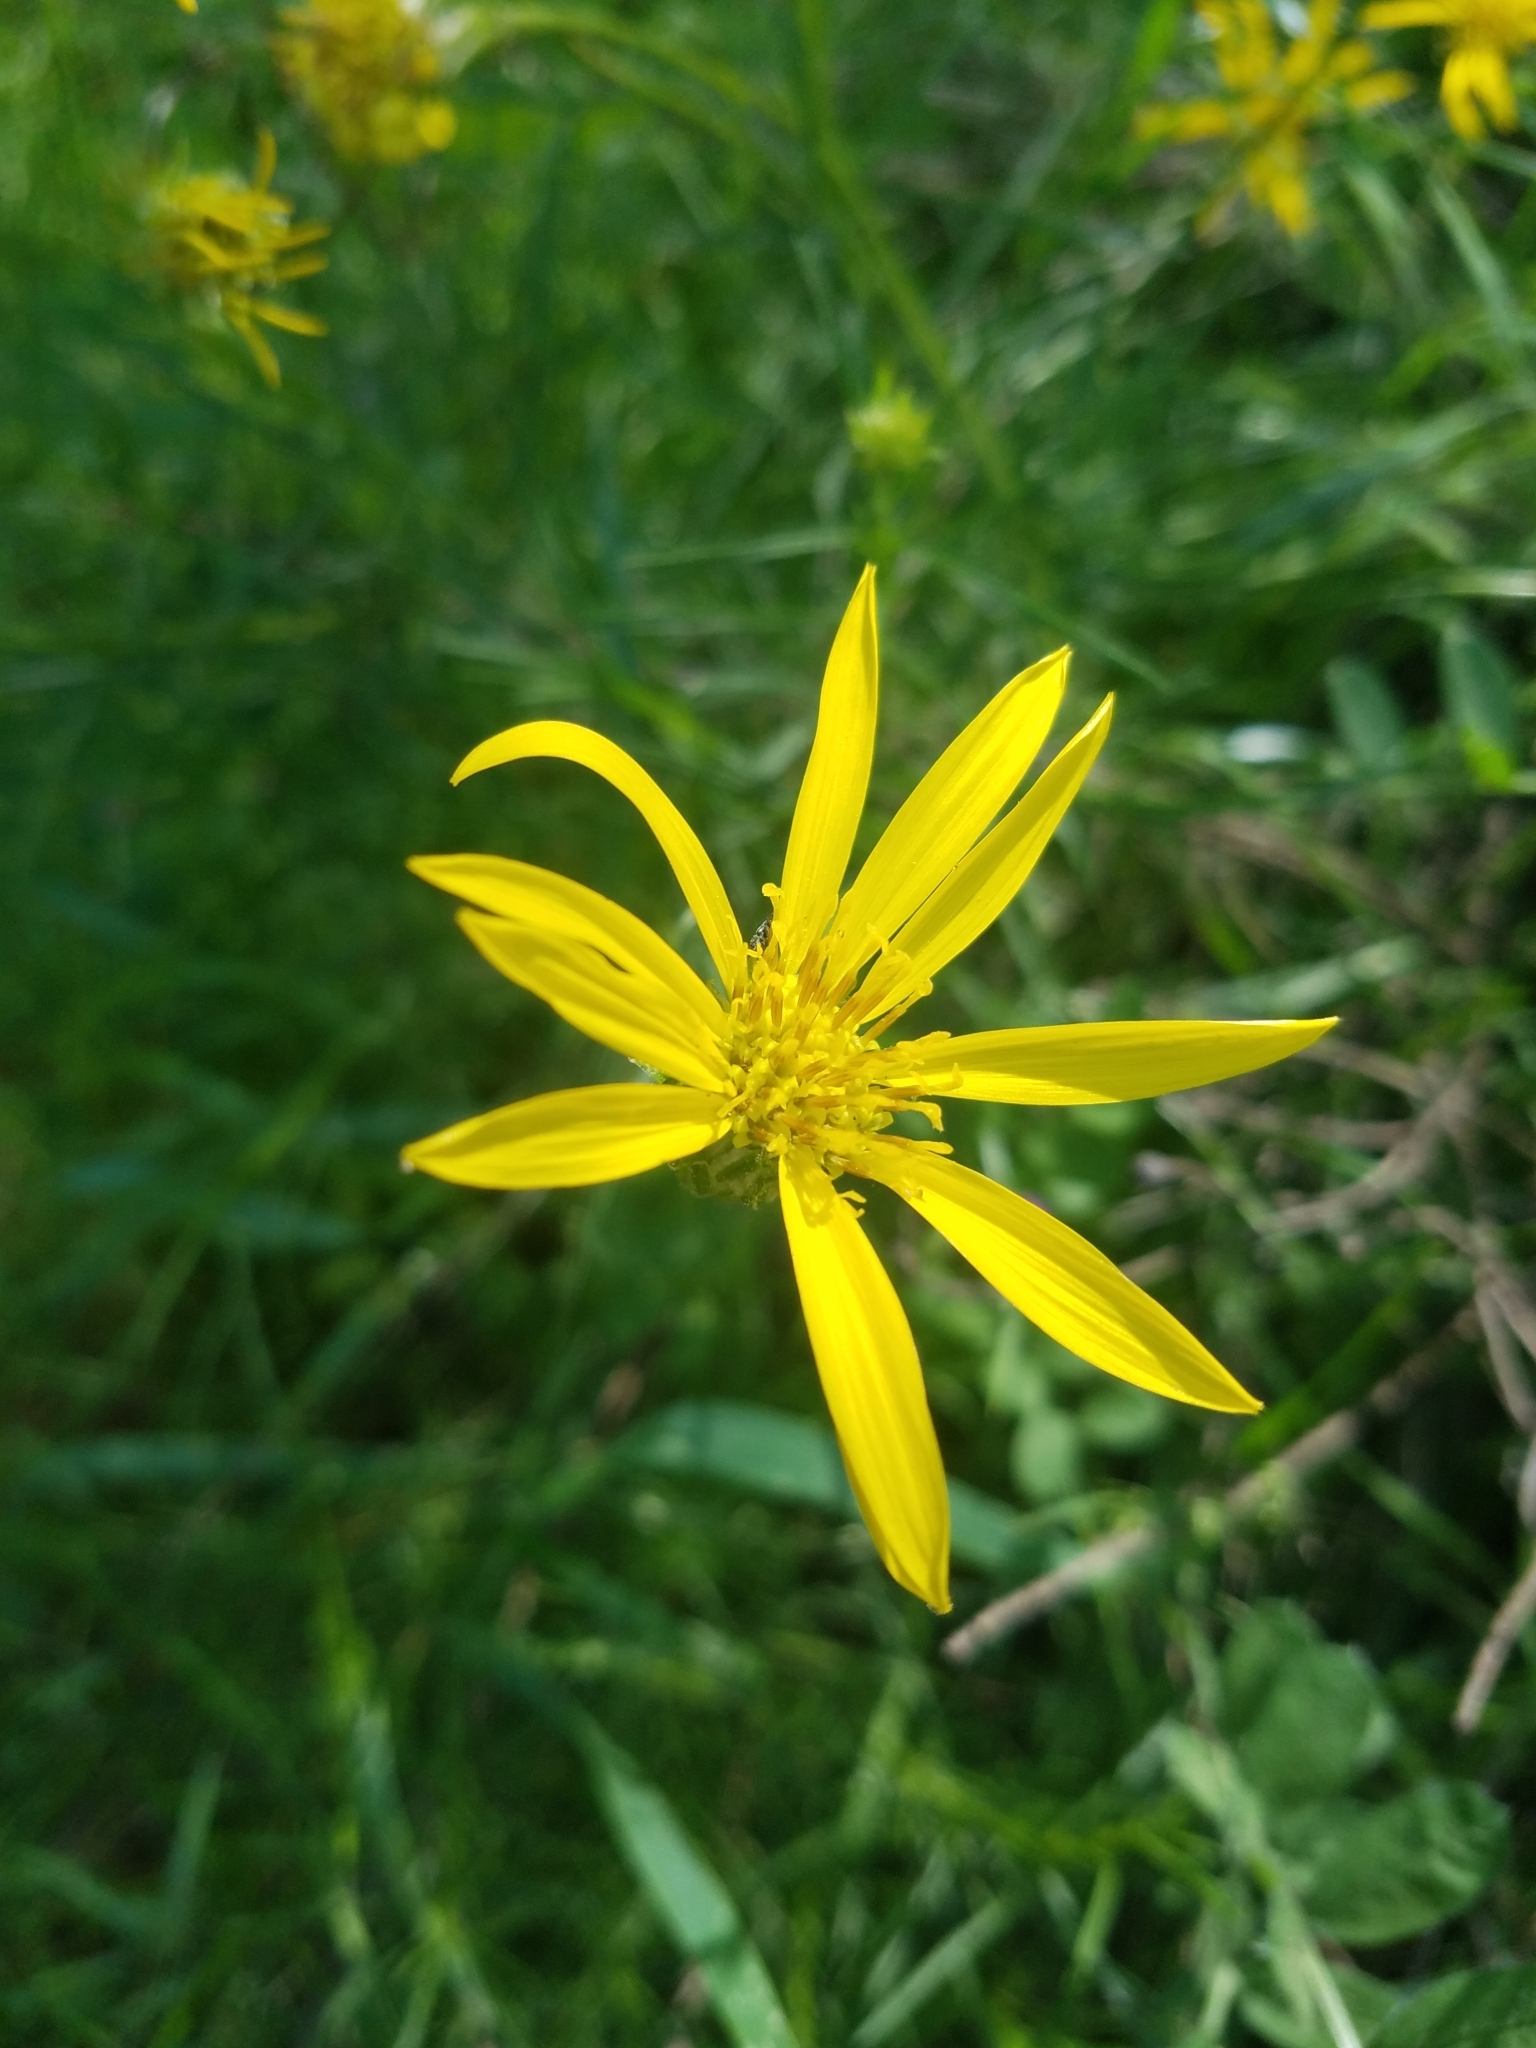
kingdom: Plantae
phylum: Tracheophyta
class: Magnoliopsida
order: Asterales
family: Asteraceae
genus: Ericameria
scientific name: Ericameria linearifolia
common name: Interior goldenbush
